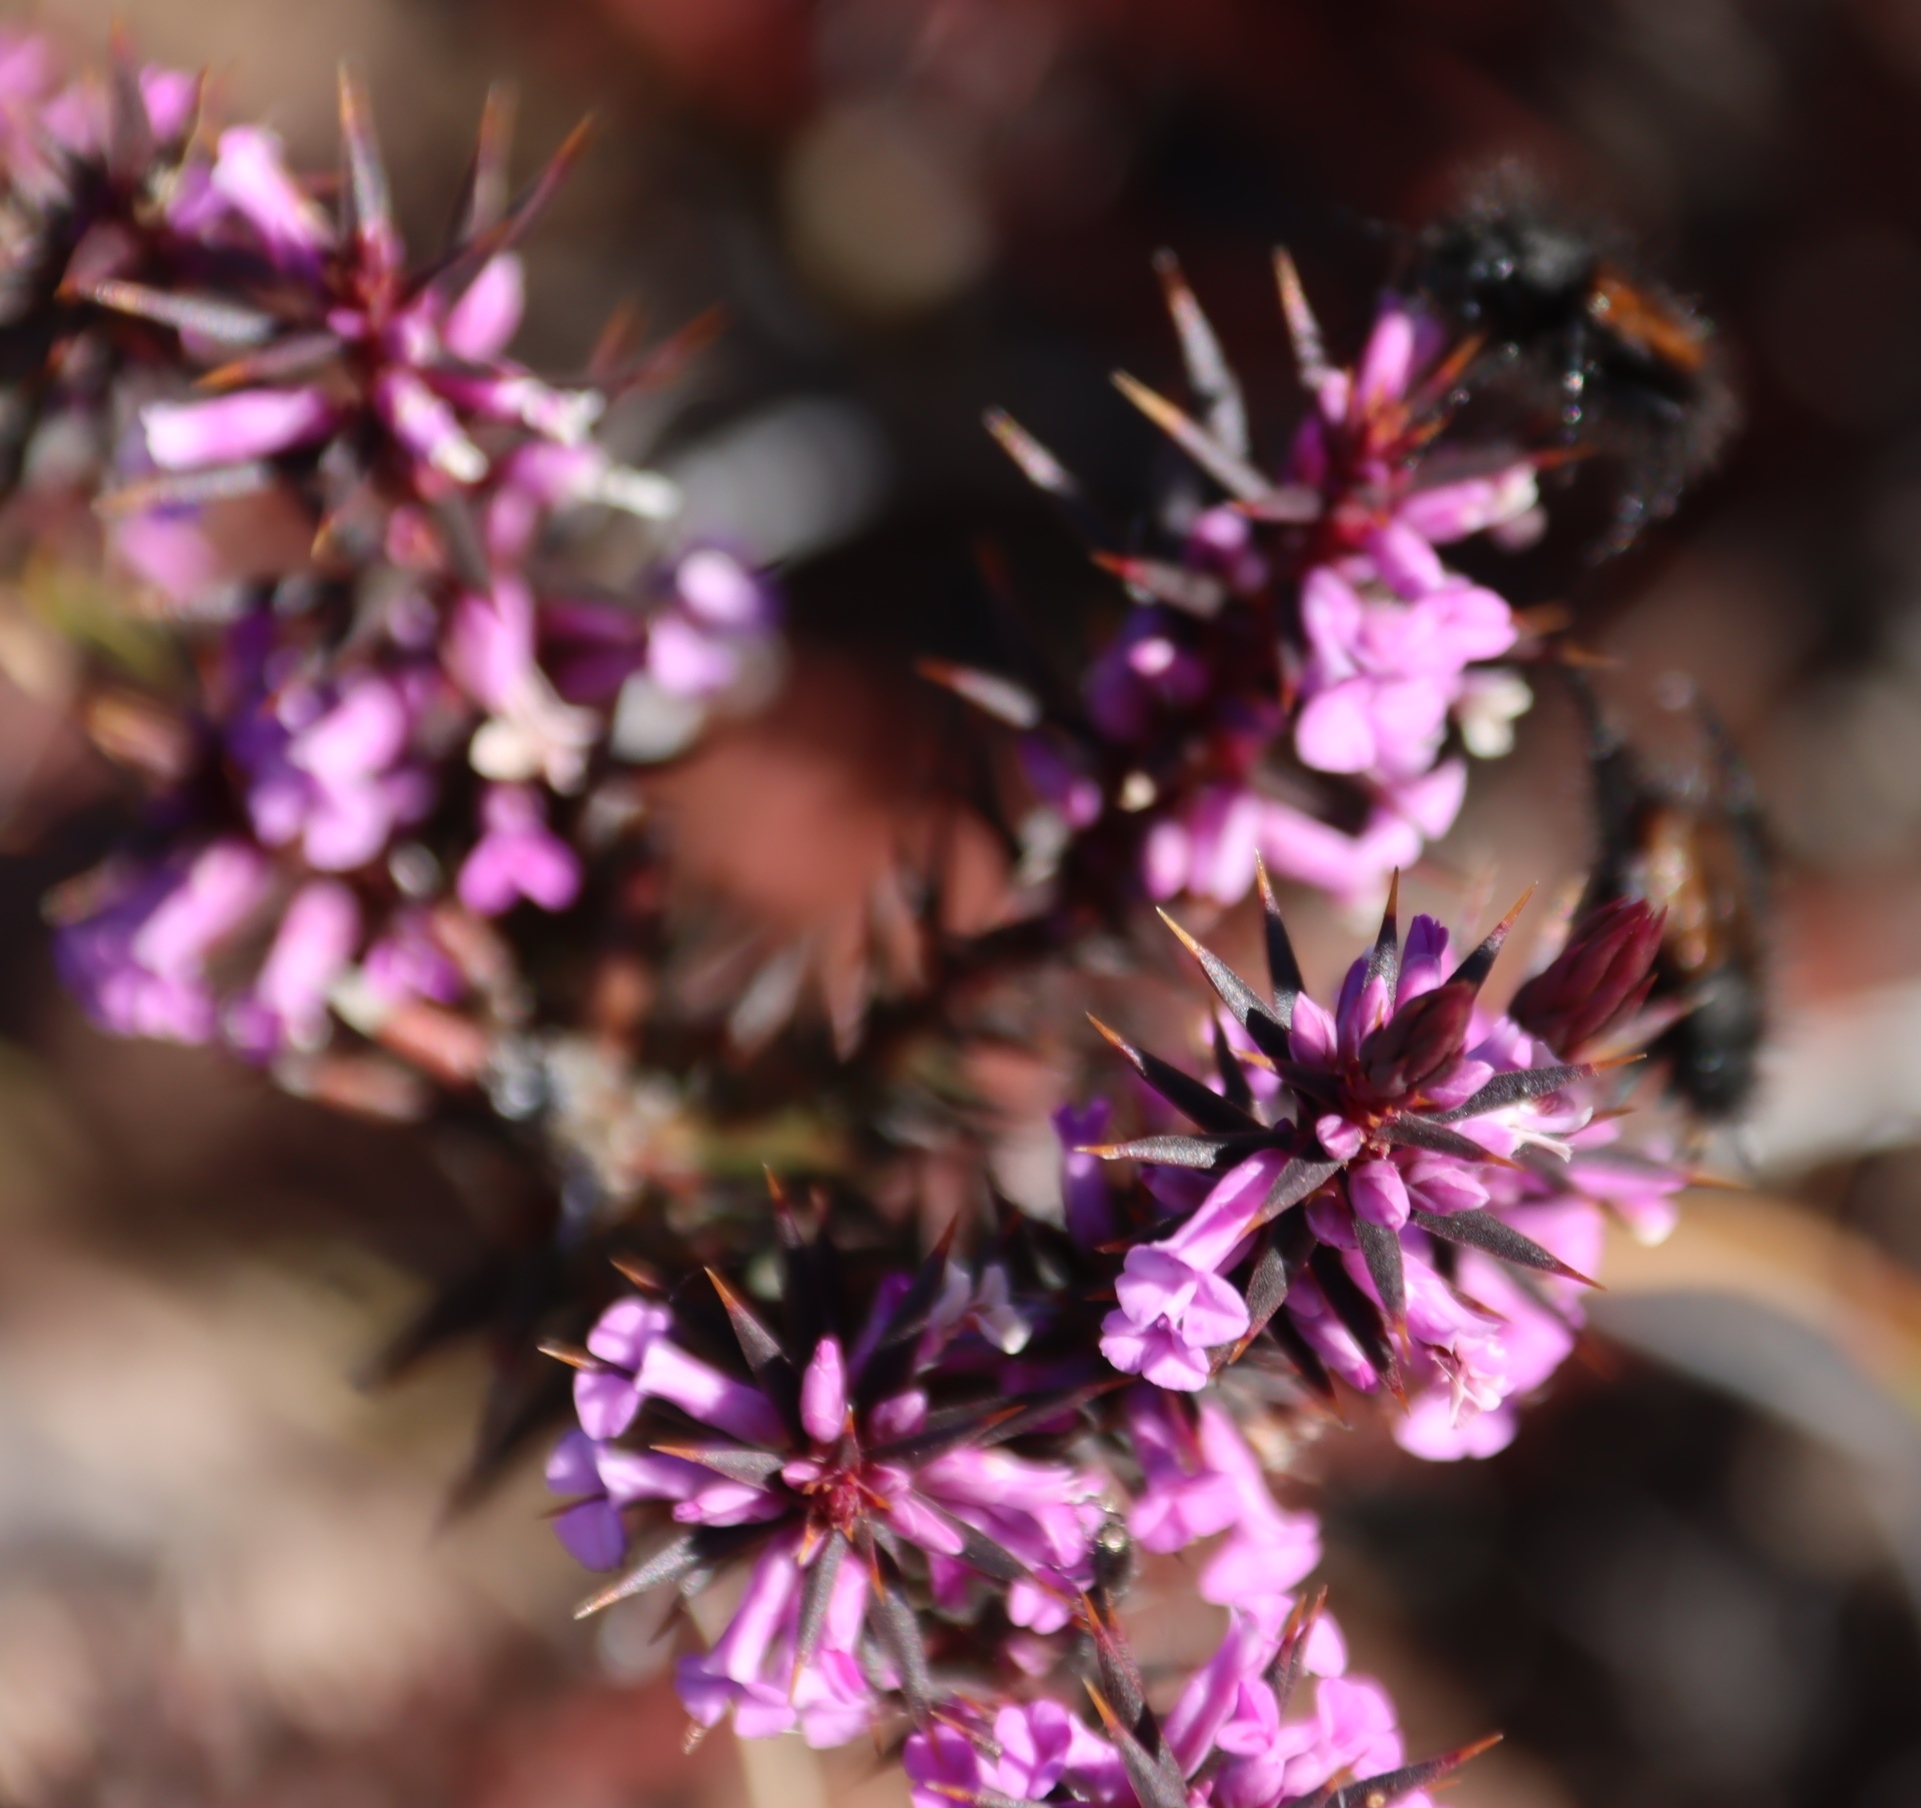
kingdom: Plantae
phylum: Tracheophyta
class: Magnoliopsida
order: Fabales
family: Polygalaceae
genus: Muraltia
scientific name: Muraltia juniperifolia
